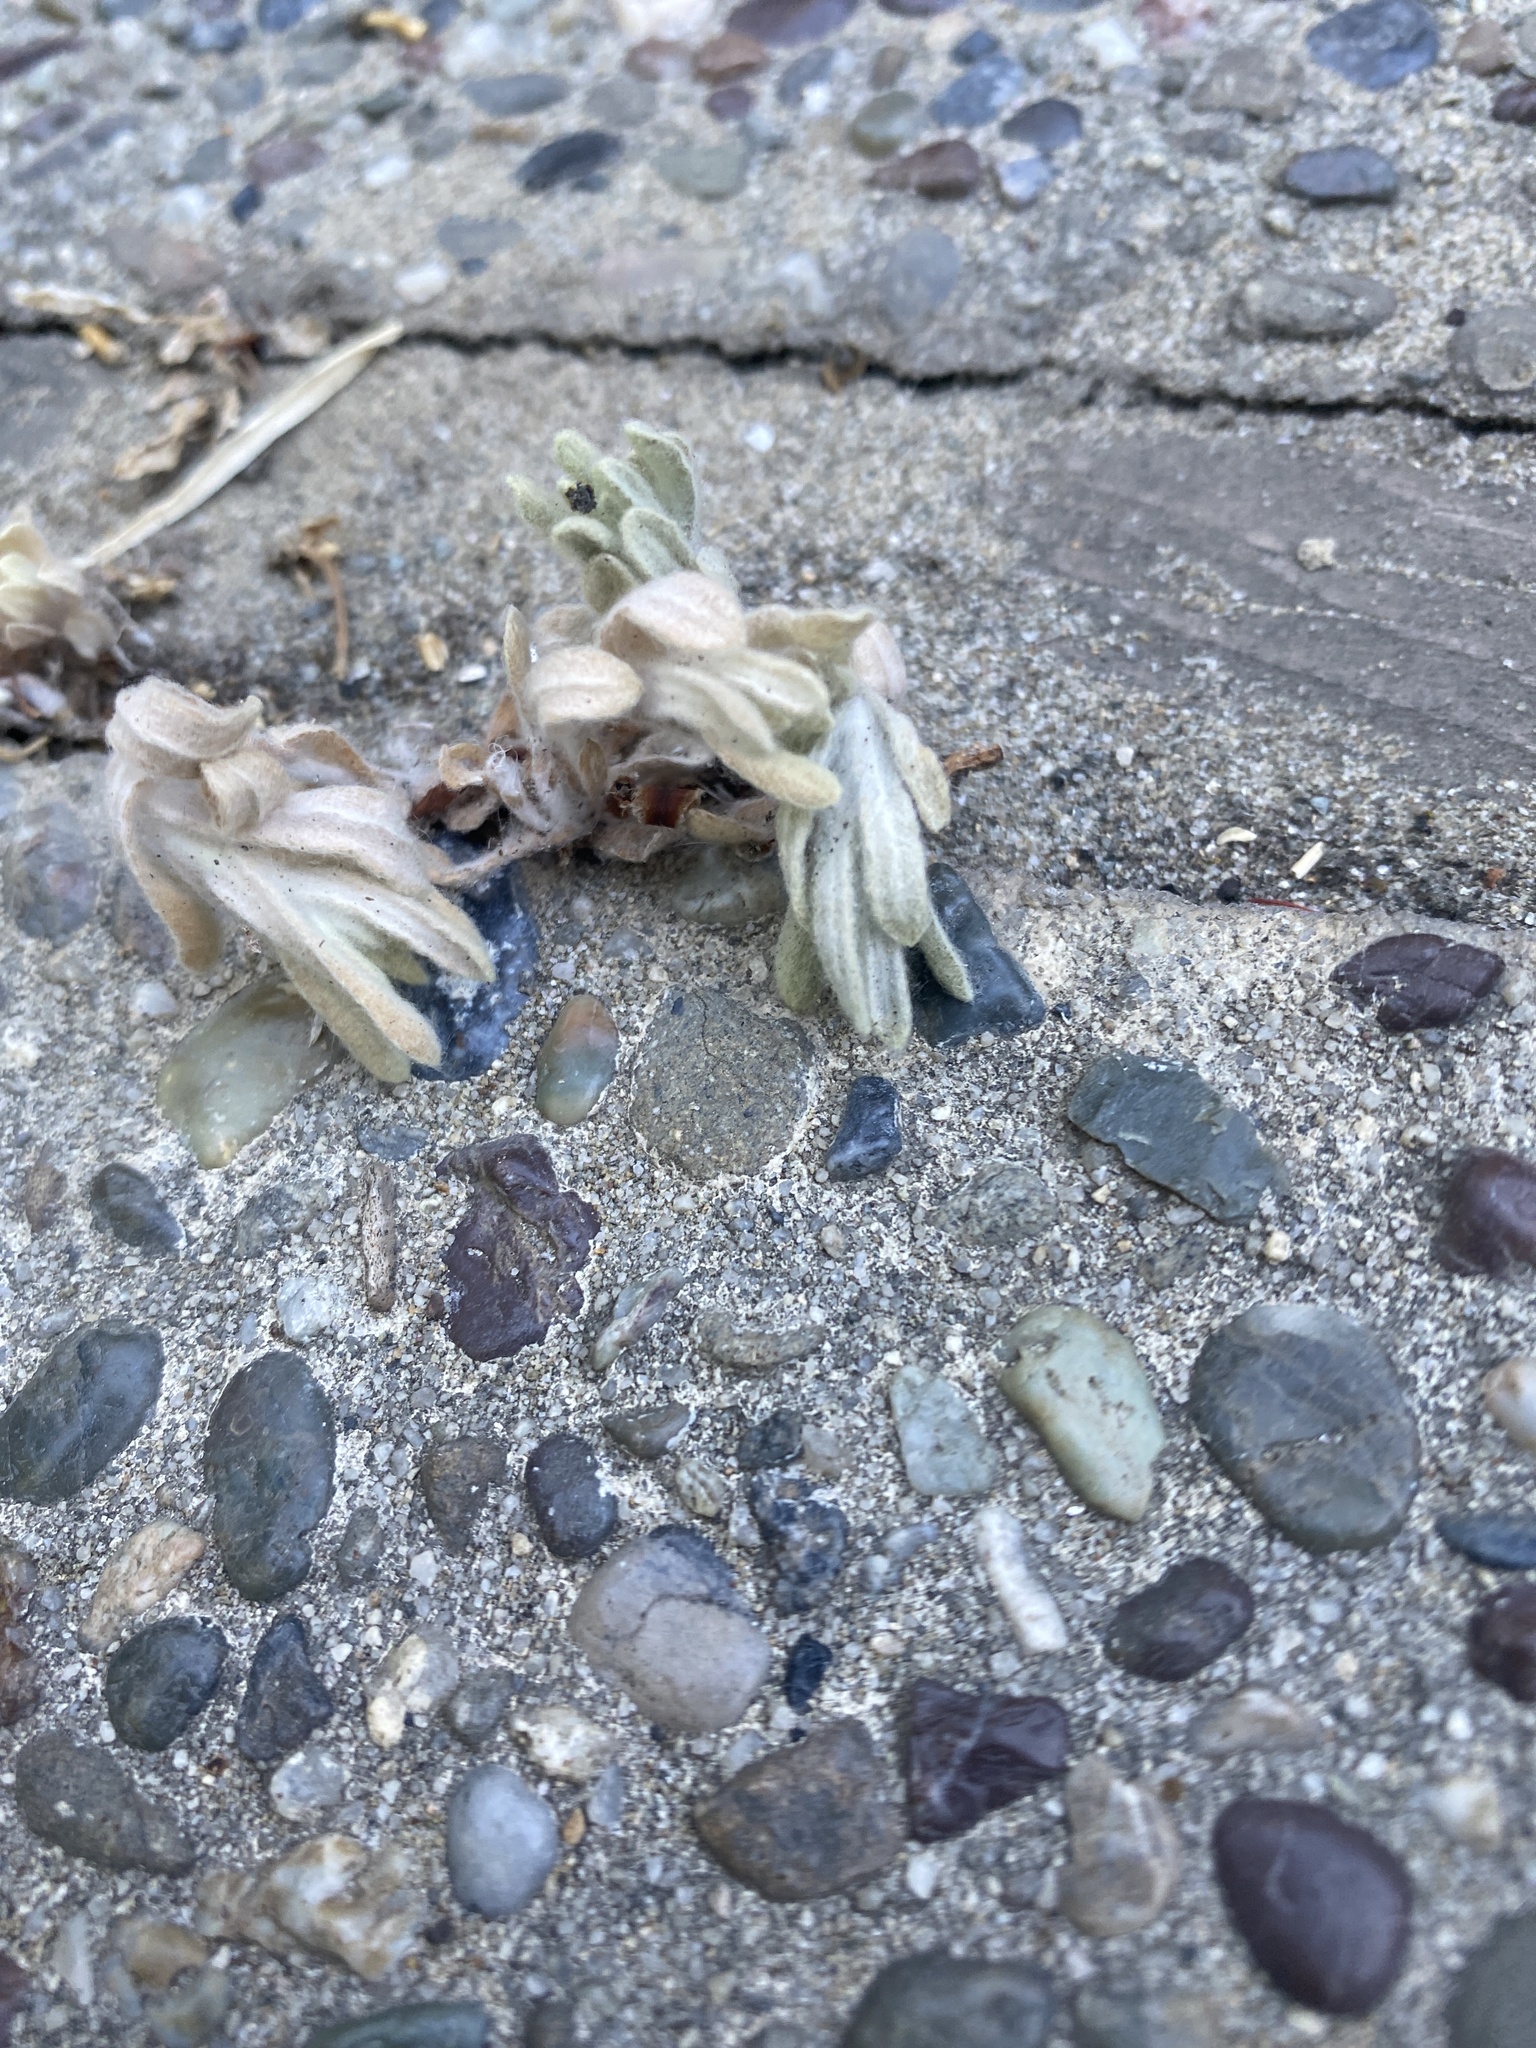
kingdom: Plantae
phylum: Tracheophyta
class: Magnoliopsida
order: Asterales
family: Asteraceae
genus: Helichrysum
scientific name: Helichrysum luteoalbum
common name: Daisy
